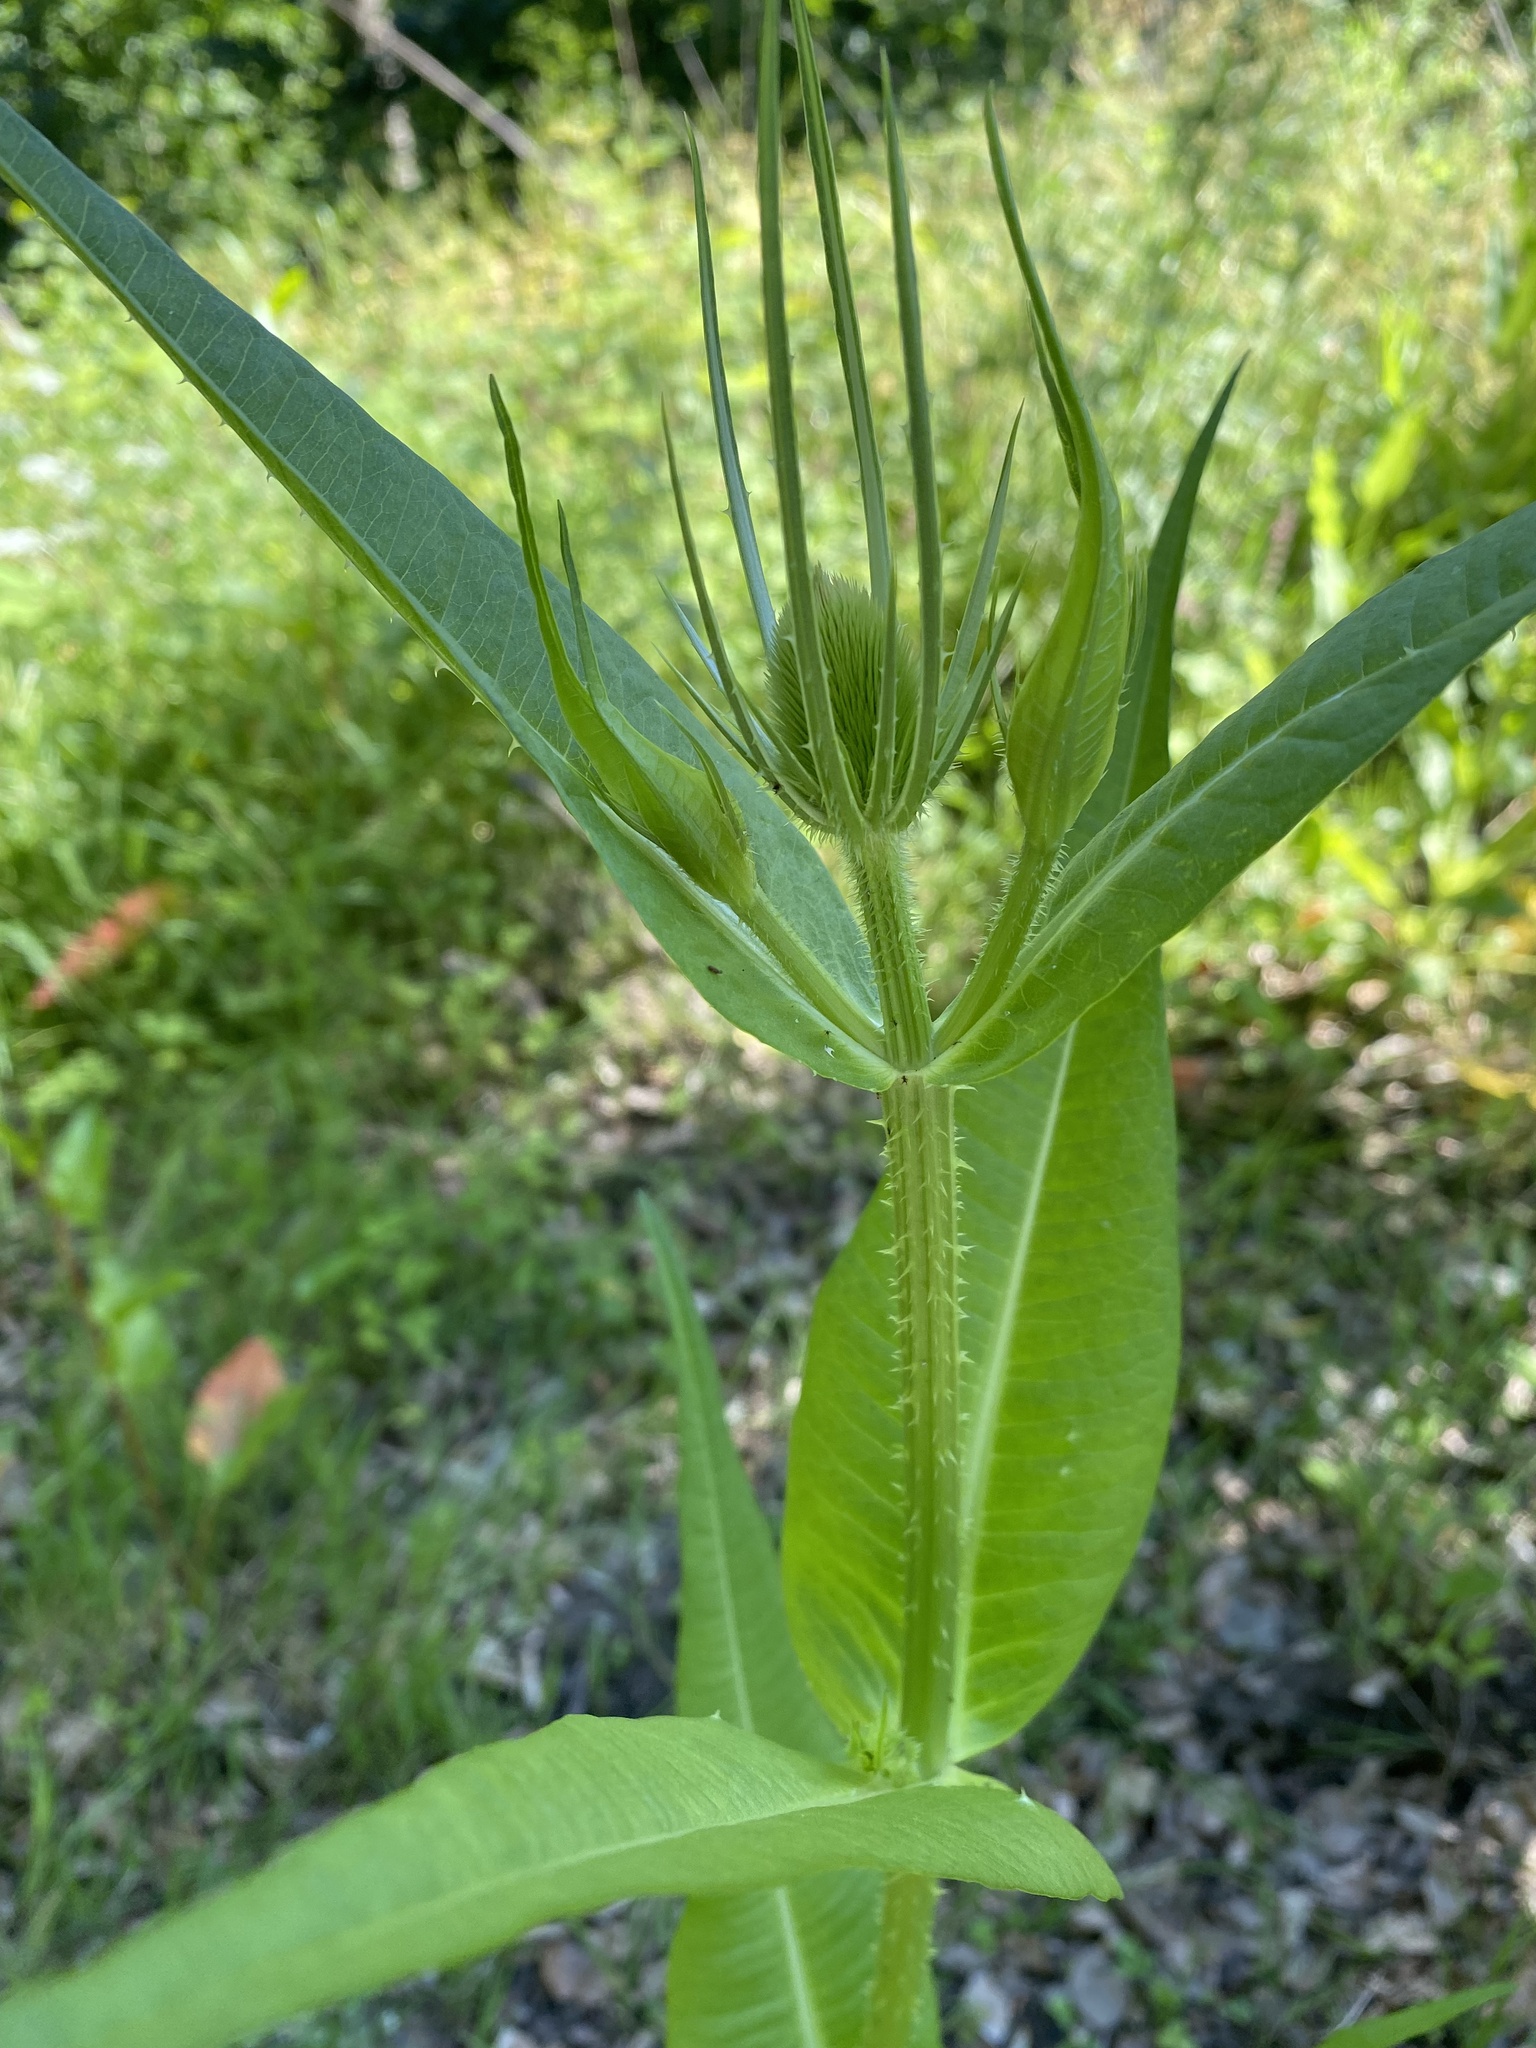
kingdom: Plantae
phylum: Tracheophyta
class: Magnoliopsida
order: Dipsacales
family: Caprifoliaceae
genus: Dipsacus
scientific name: Dipsacus fullonum
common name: Teasel
